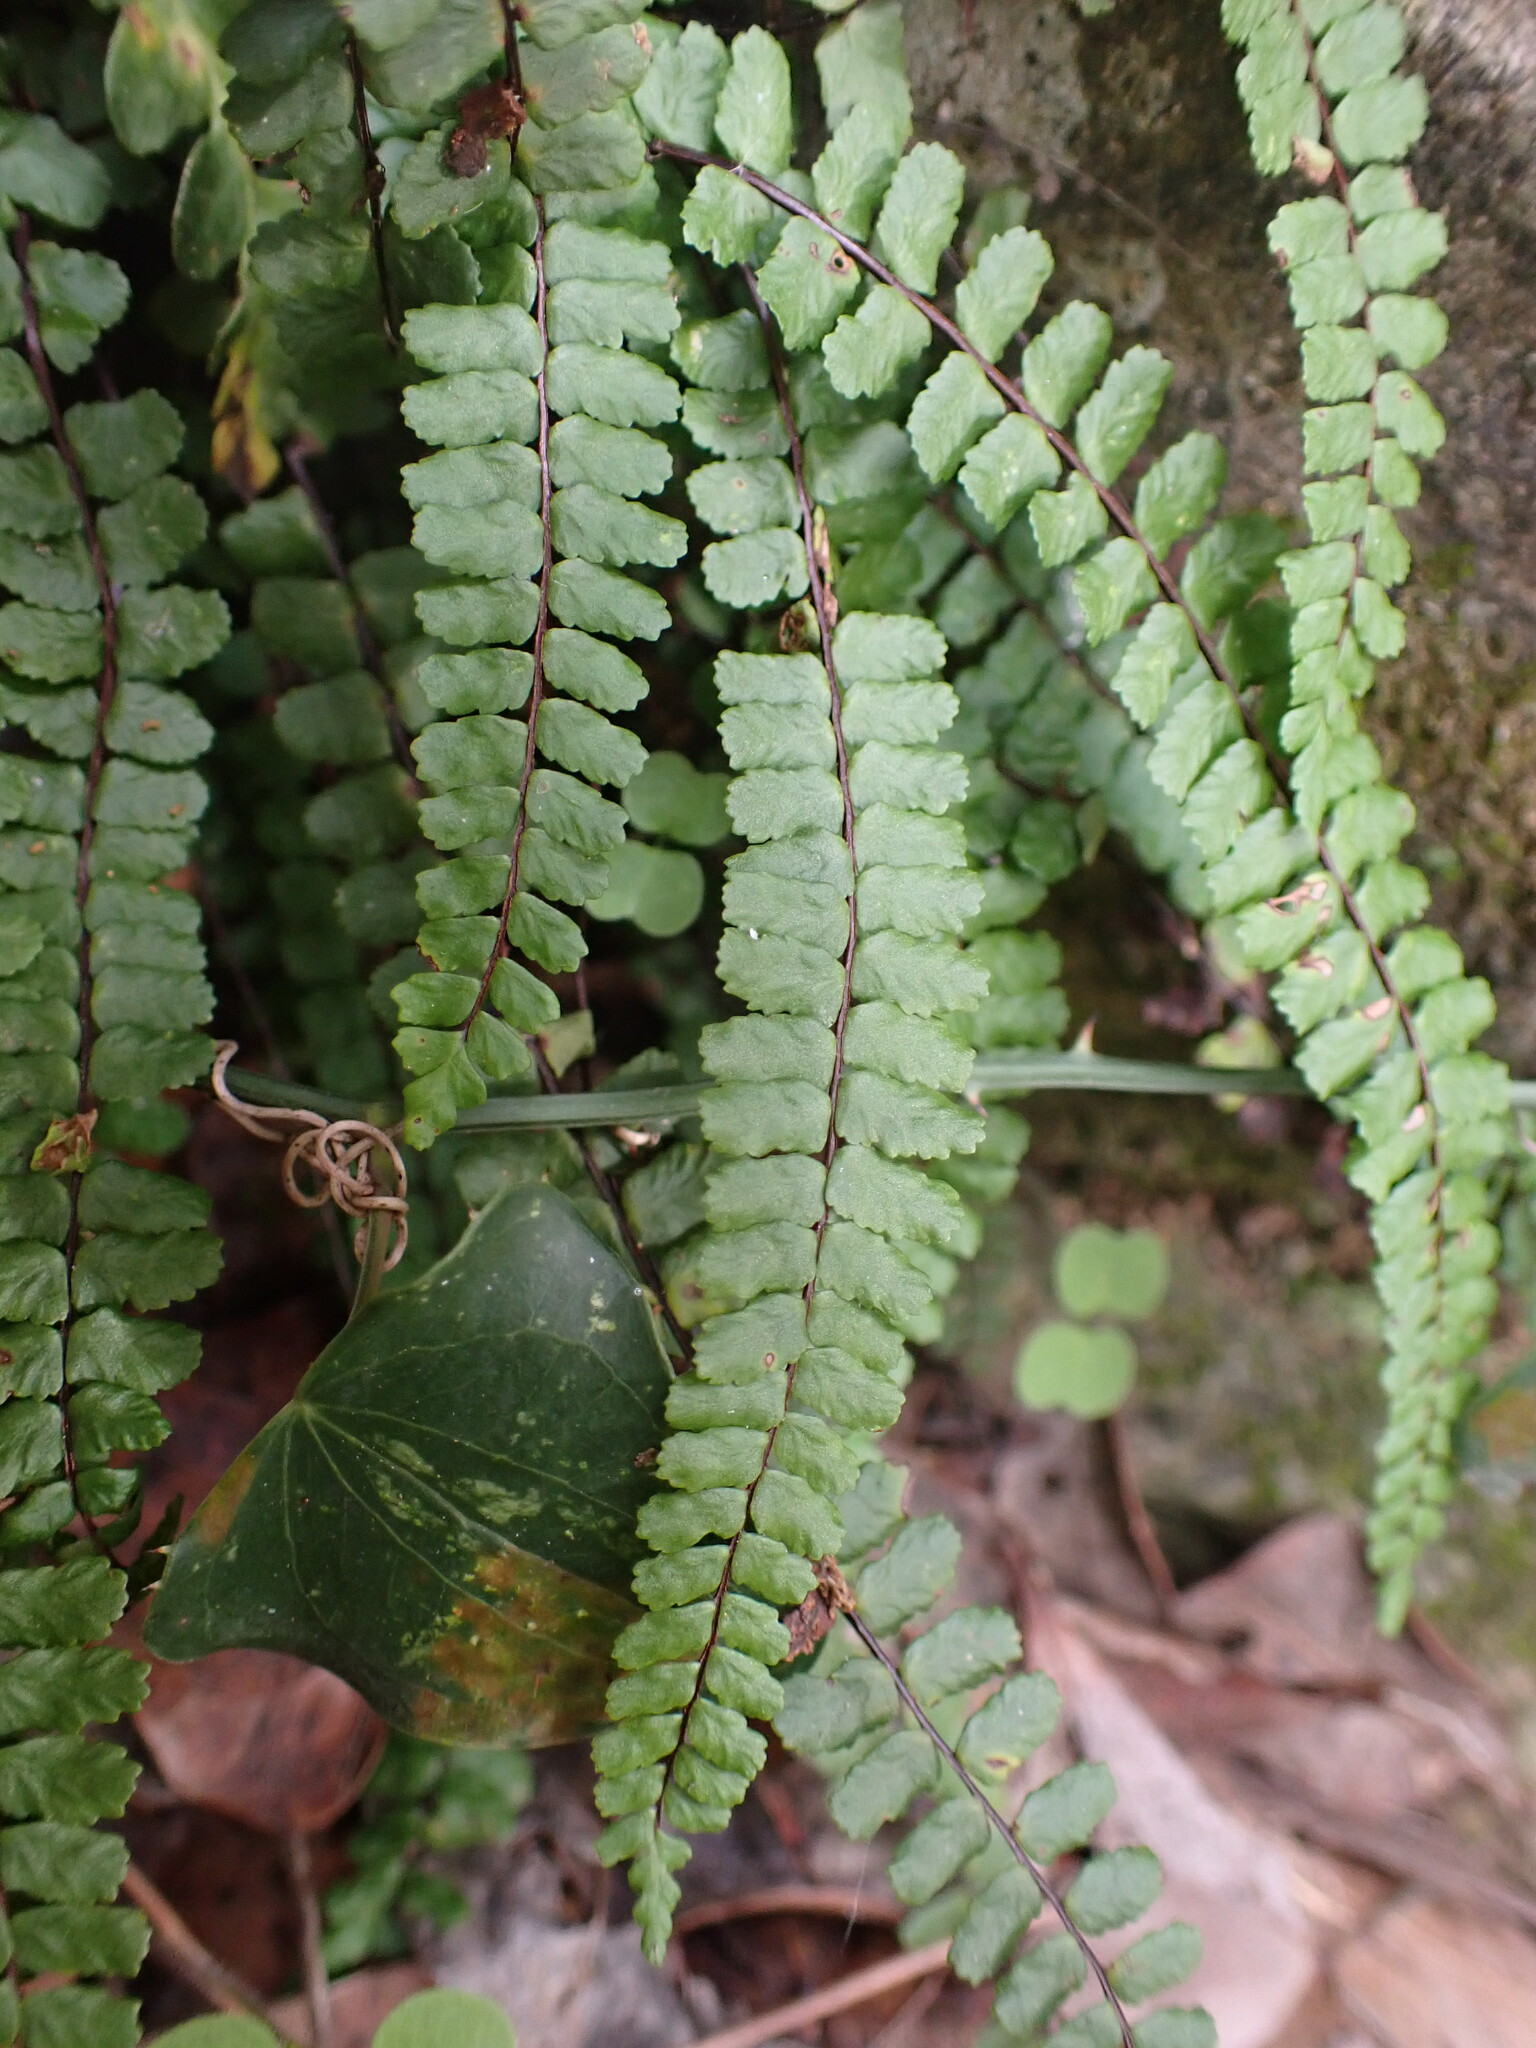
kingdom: Plantae
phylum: Tracheophyta
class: Polypodiopsida
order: Polypodiales
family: Aspleniaceae
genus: Asplenium
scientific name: Asplenium trichomanes
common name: Maidenhair spleenwort
